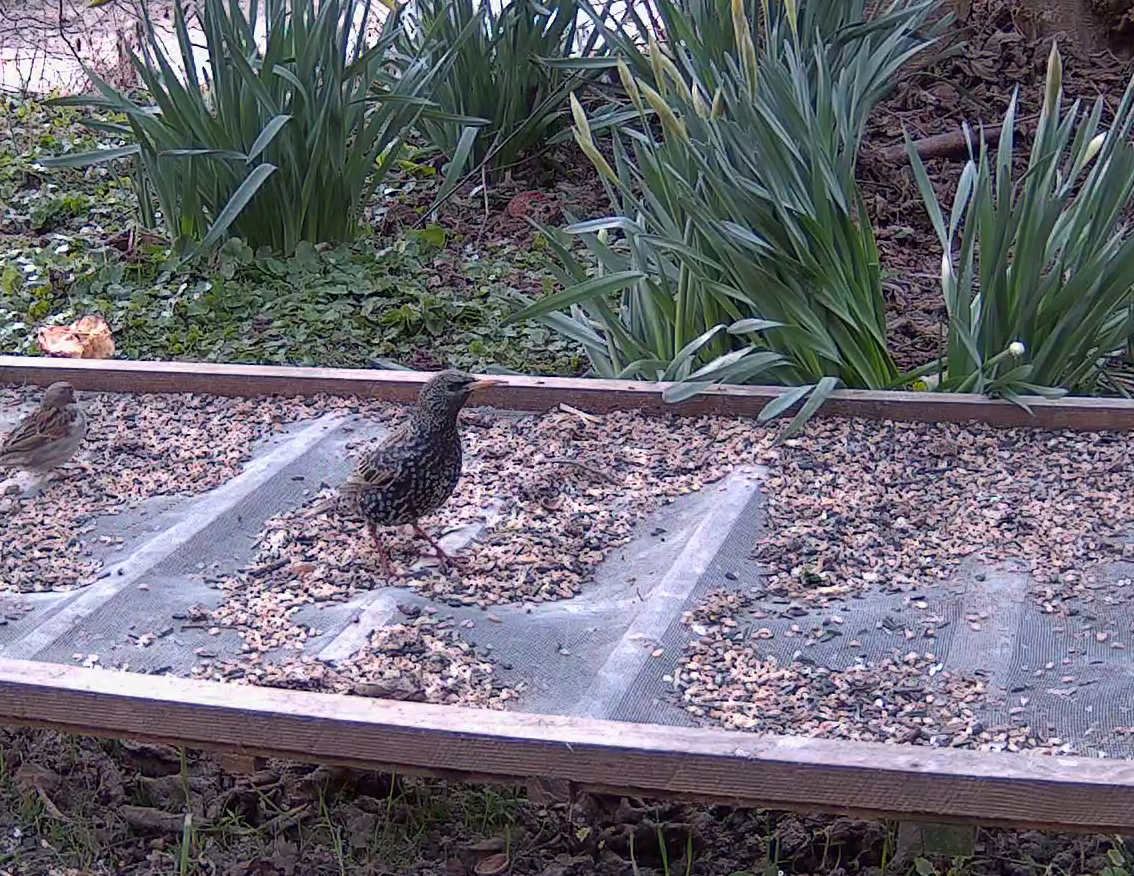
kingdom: Animalia
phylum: Chordata
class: Aves
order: Passeriformes
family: Sturnidae
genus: Sturnus
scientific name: Sturnus vulgaris
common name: Common starling
